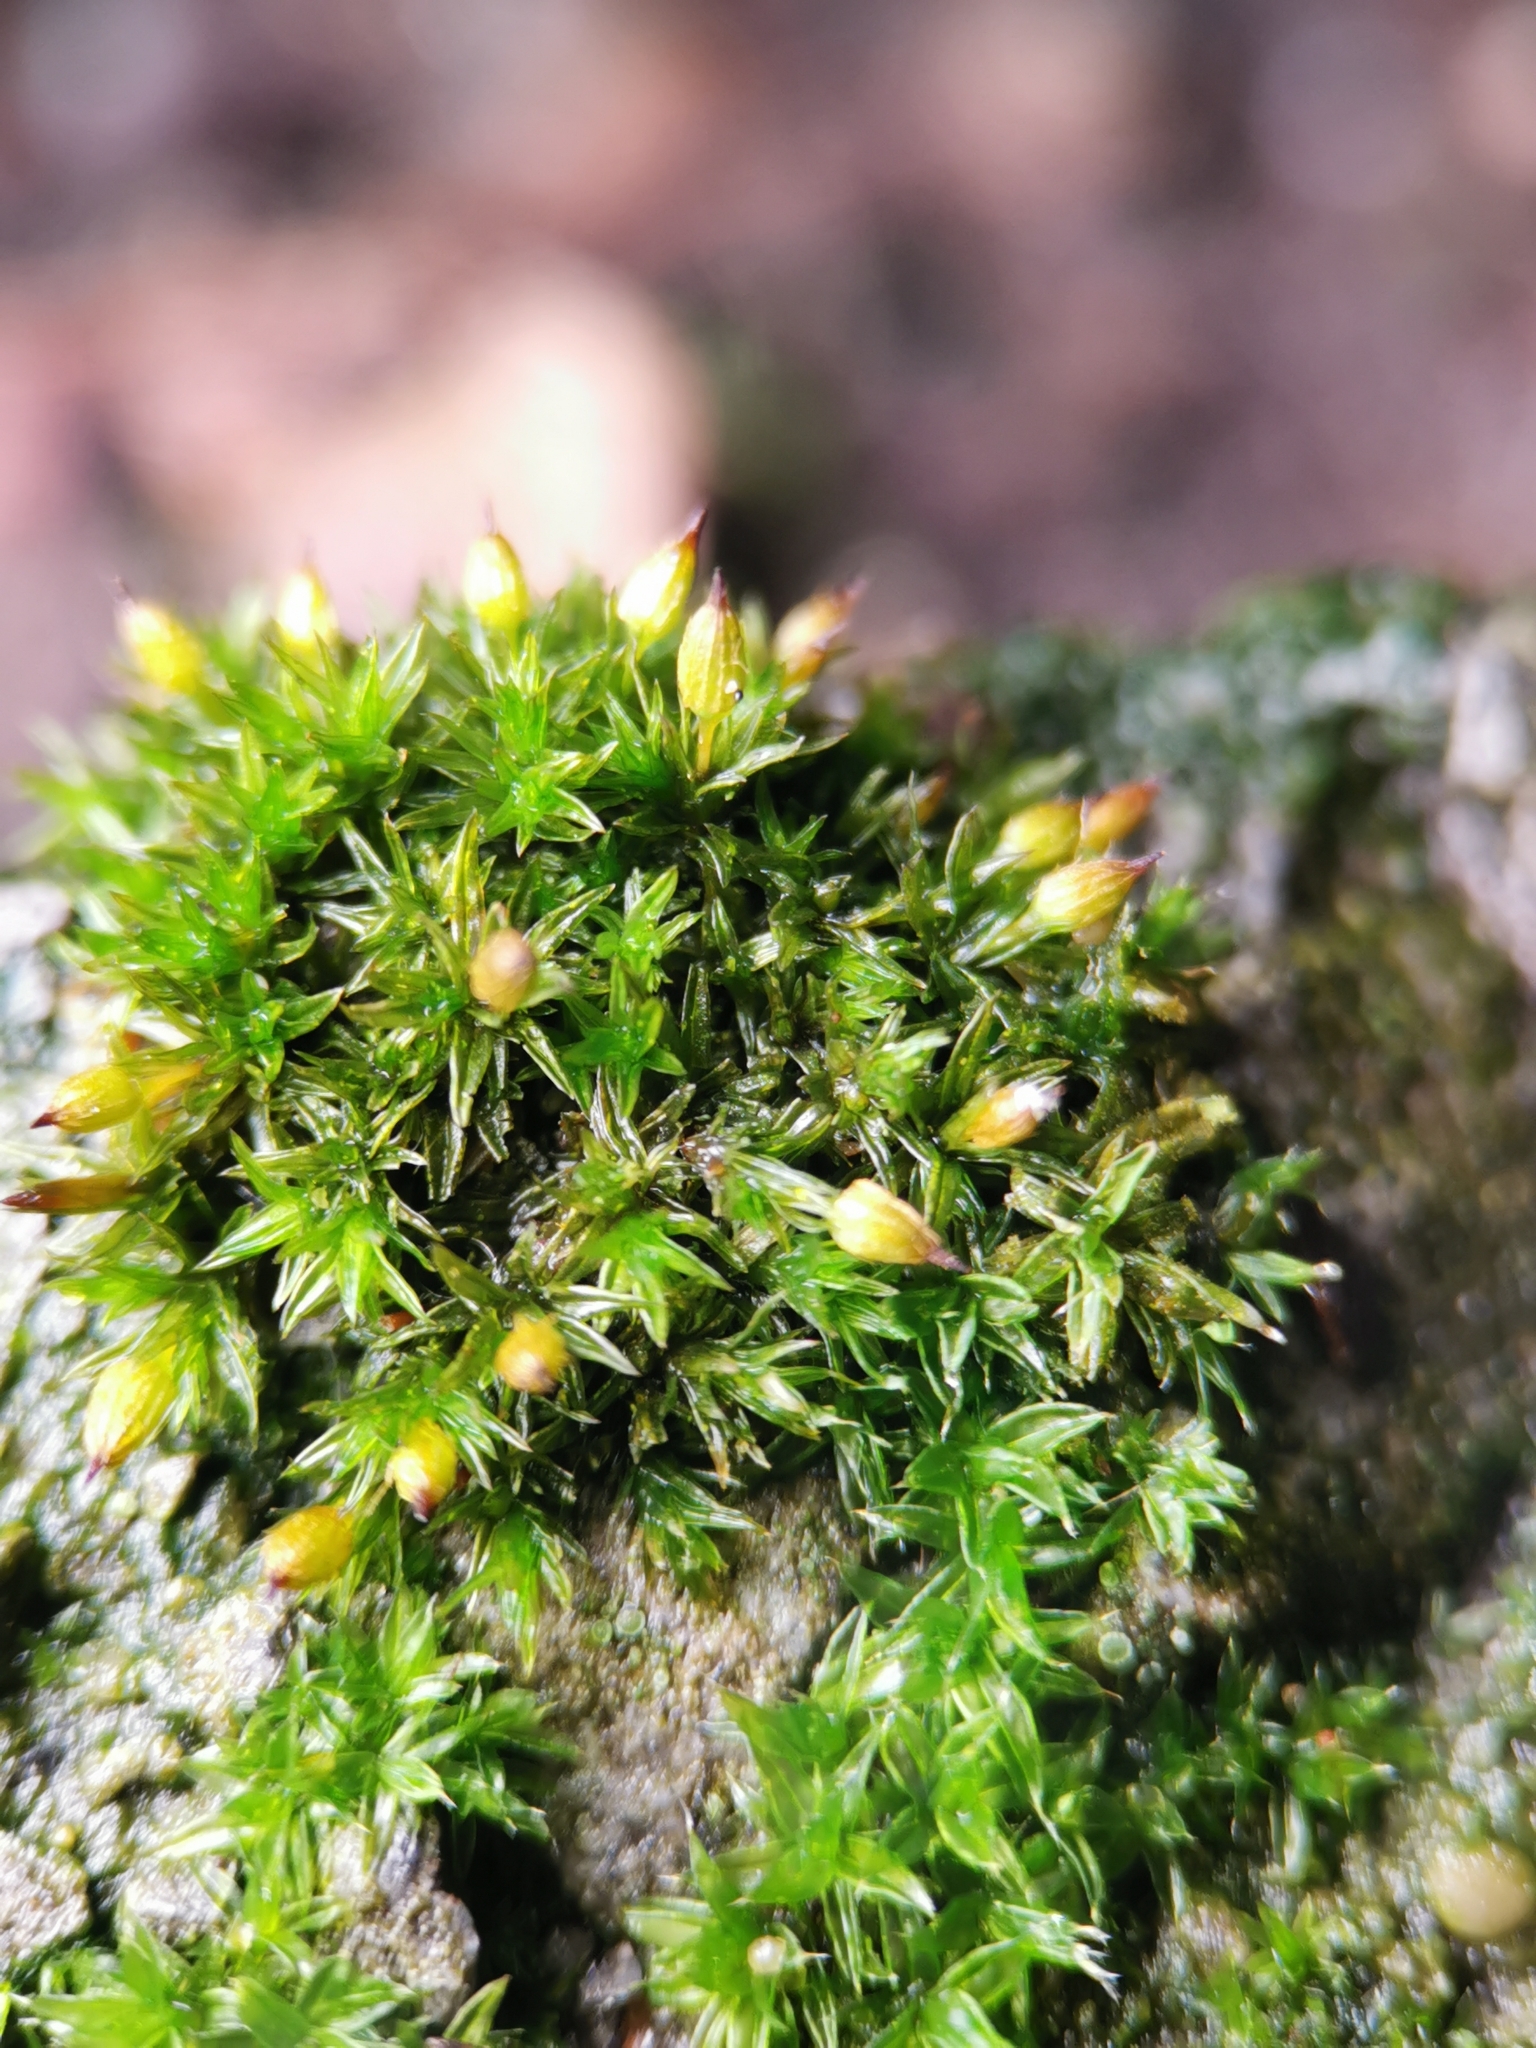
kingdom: Plantae
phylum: Bryophyta
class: Bryopsida
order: Orthotrichales
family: Orthotrichaceae
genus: Orthotrichum
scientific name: Orthotrichum diaphanum
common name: White-tipped bristle-moss
